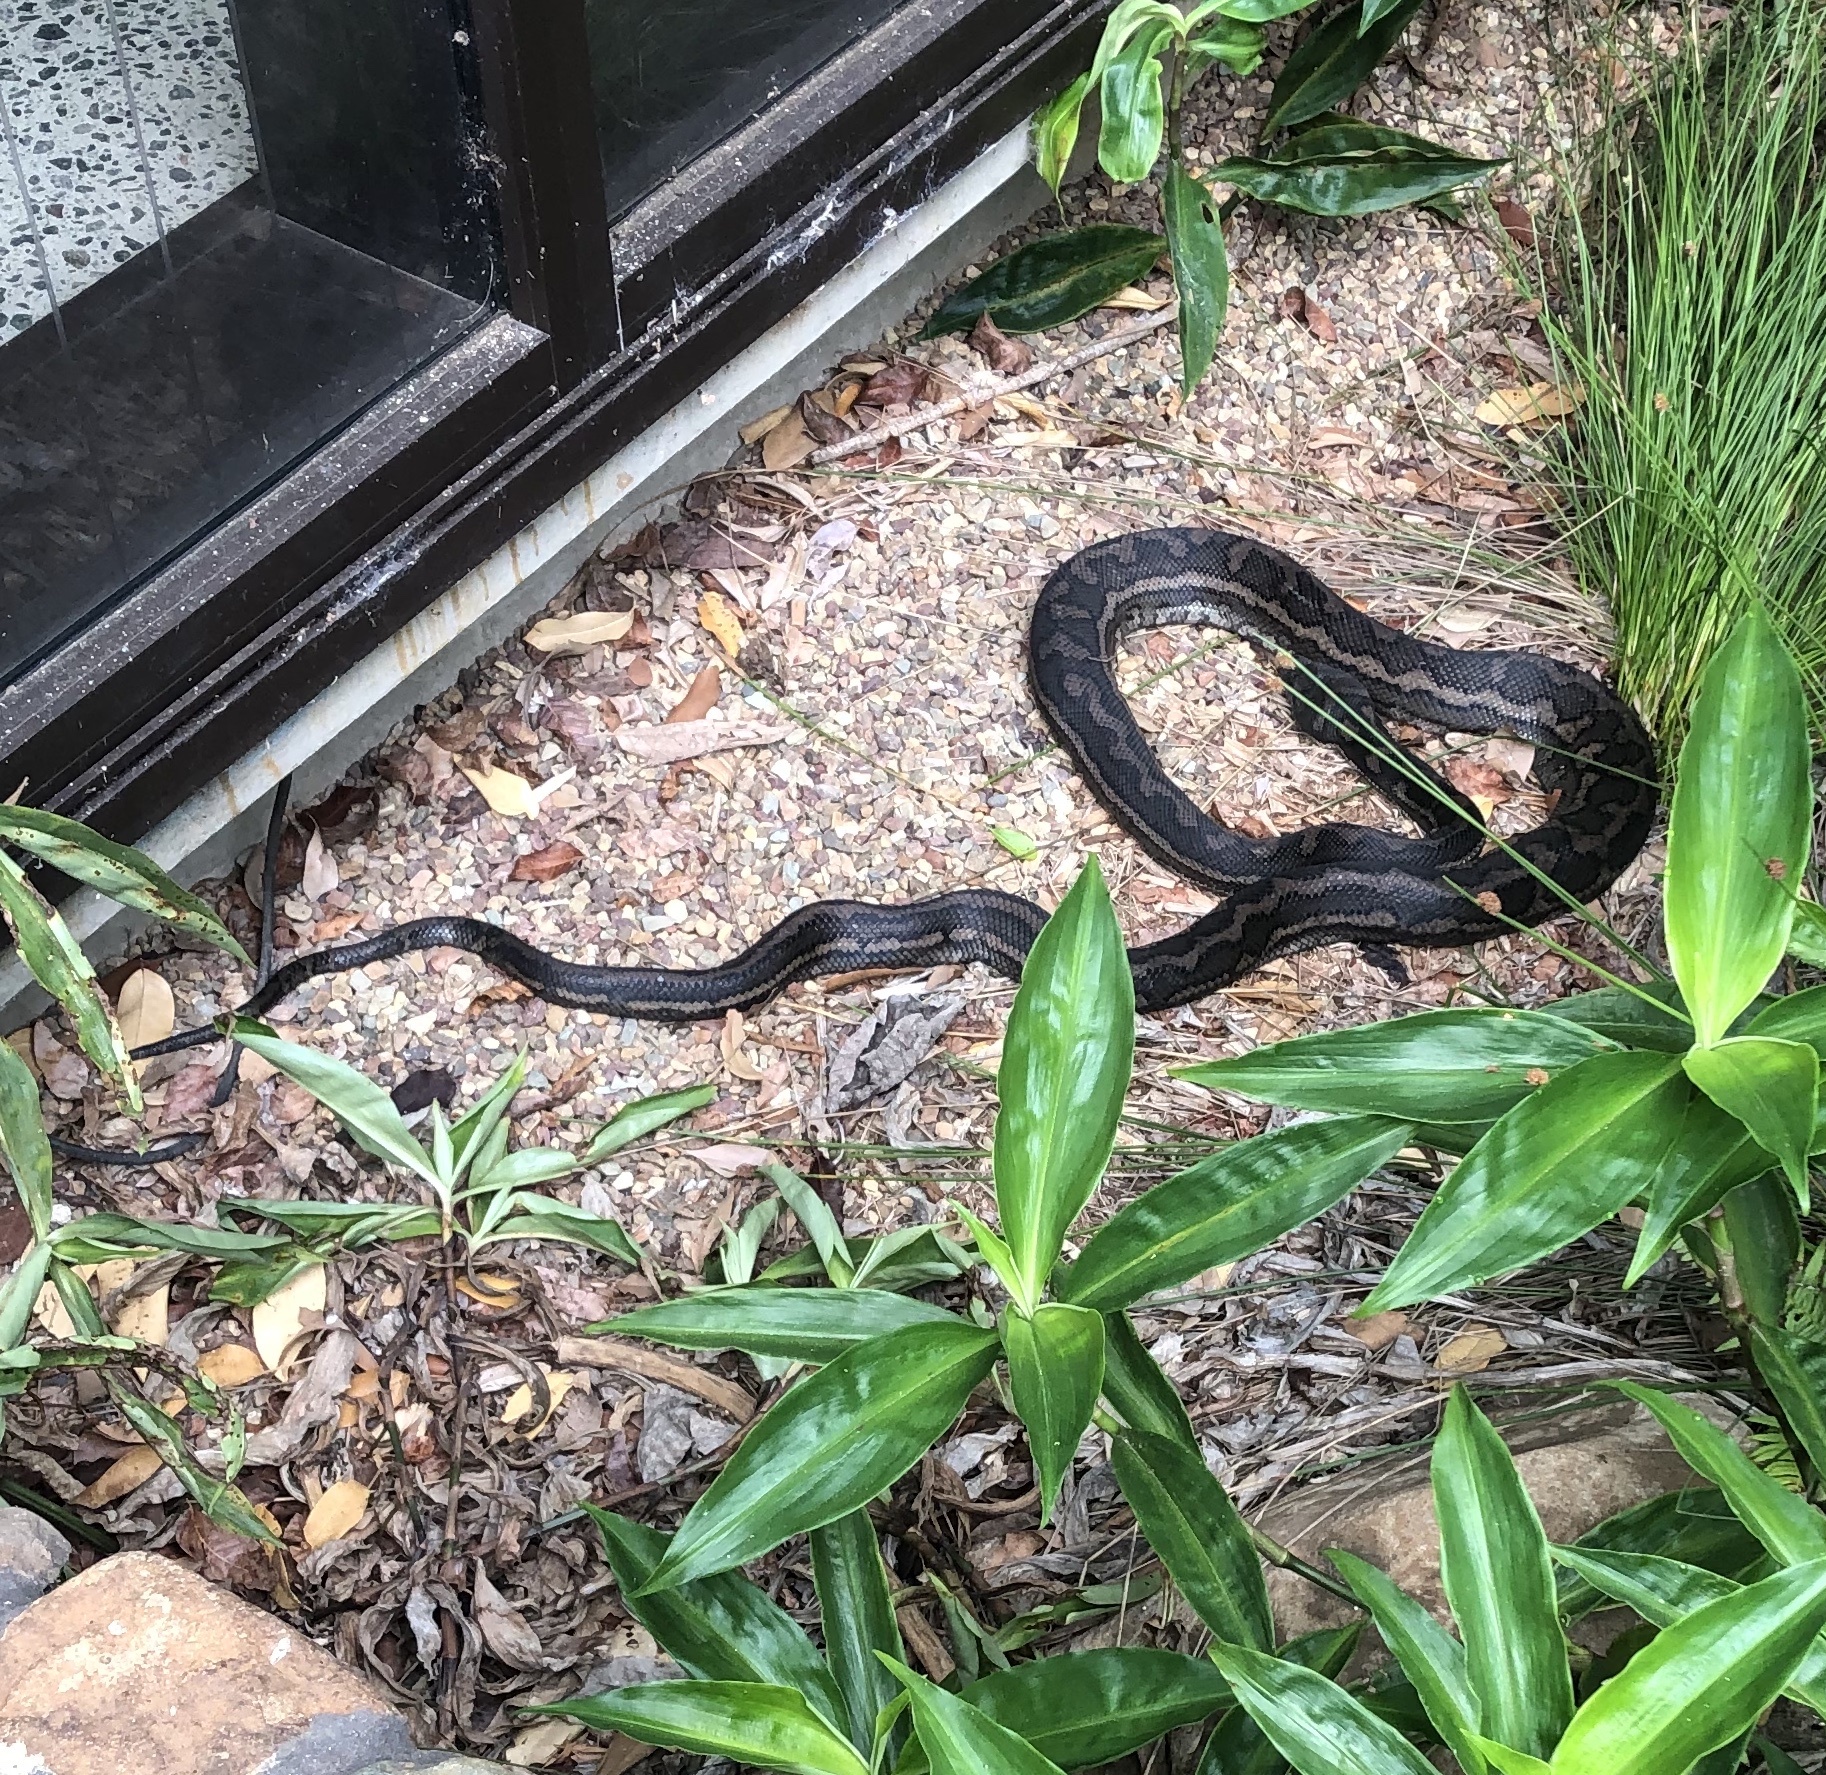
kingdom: Animalia
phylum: Chordata
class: Squamata
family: Pythonidae
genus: Morelia
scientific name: Morelia spilota
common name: Carpet python
